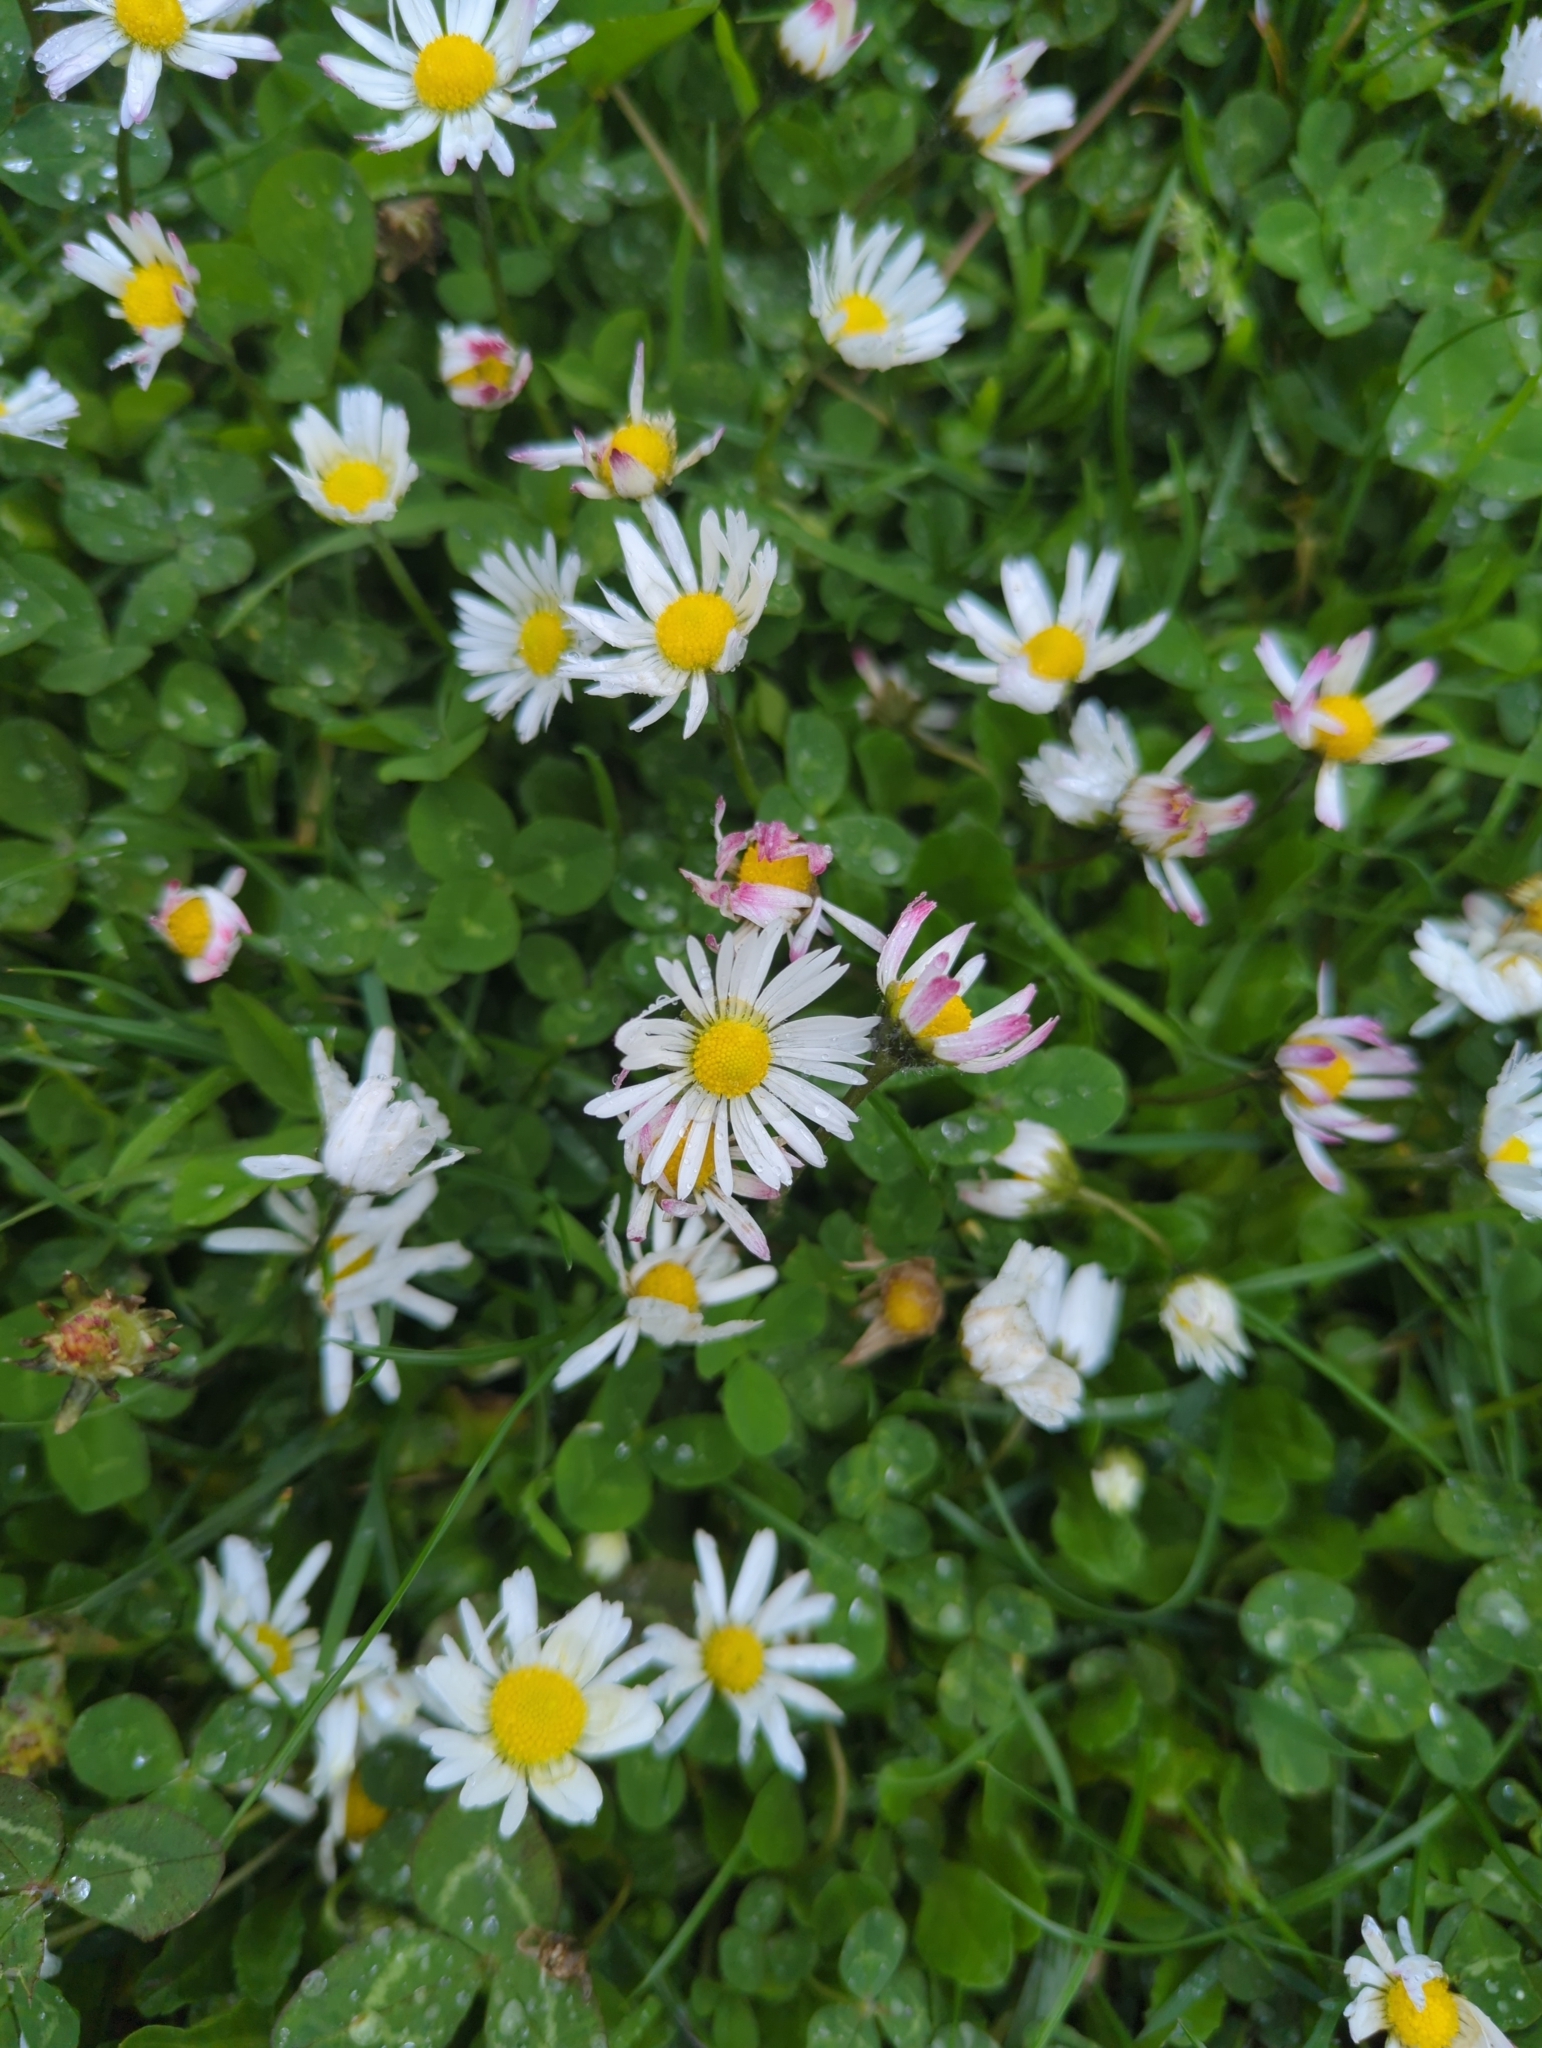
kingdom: Plantae
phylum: Tracheophyta
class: Magnoliopsida
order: Asterales
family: Asteraceae
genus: Bellis
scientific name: Bellis perennis
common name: Lawndaisy
